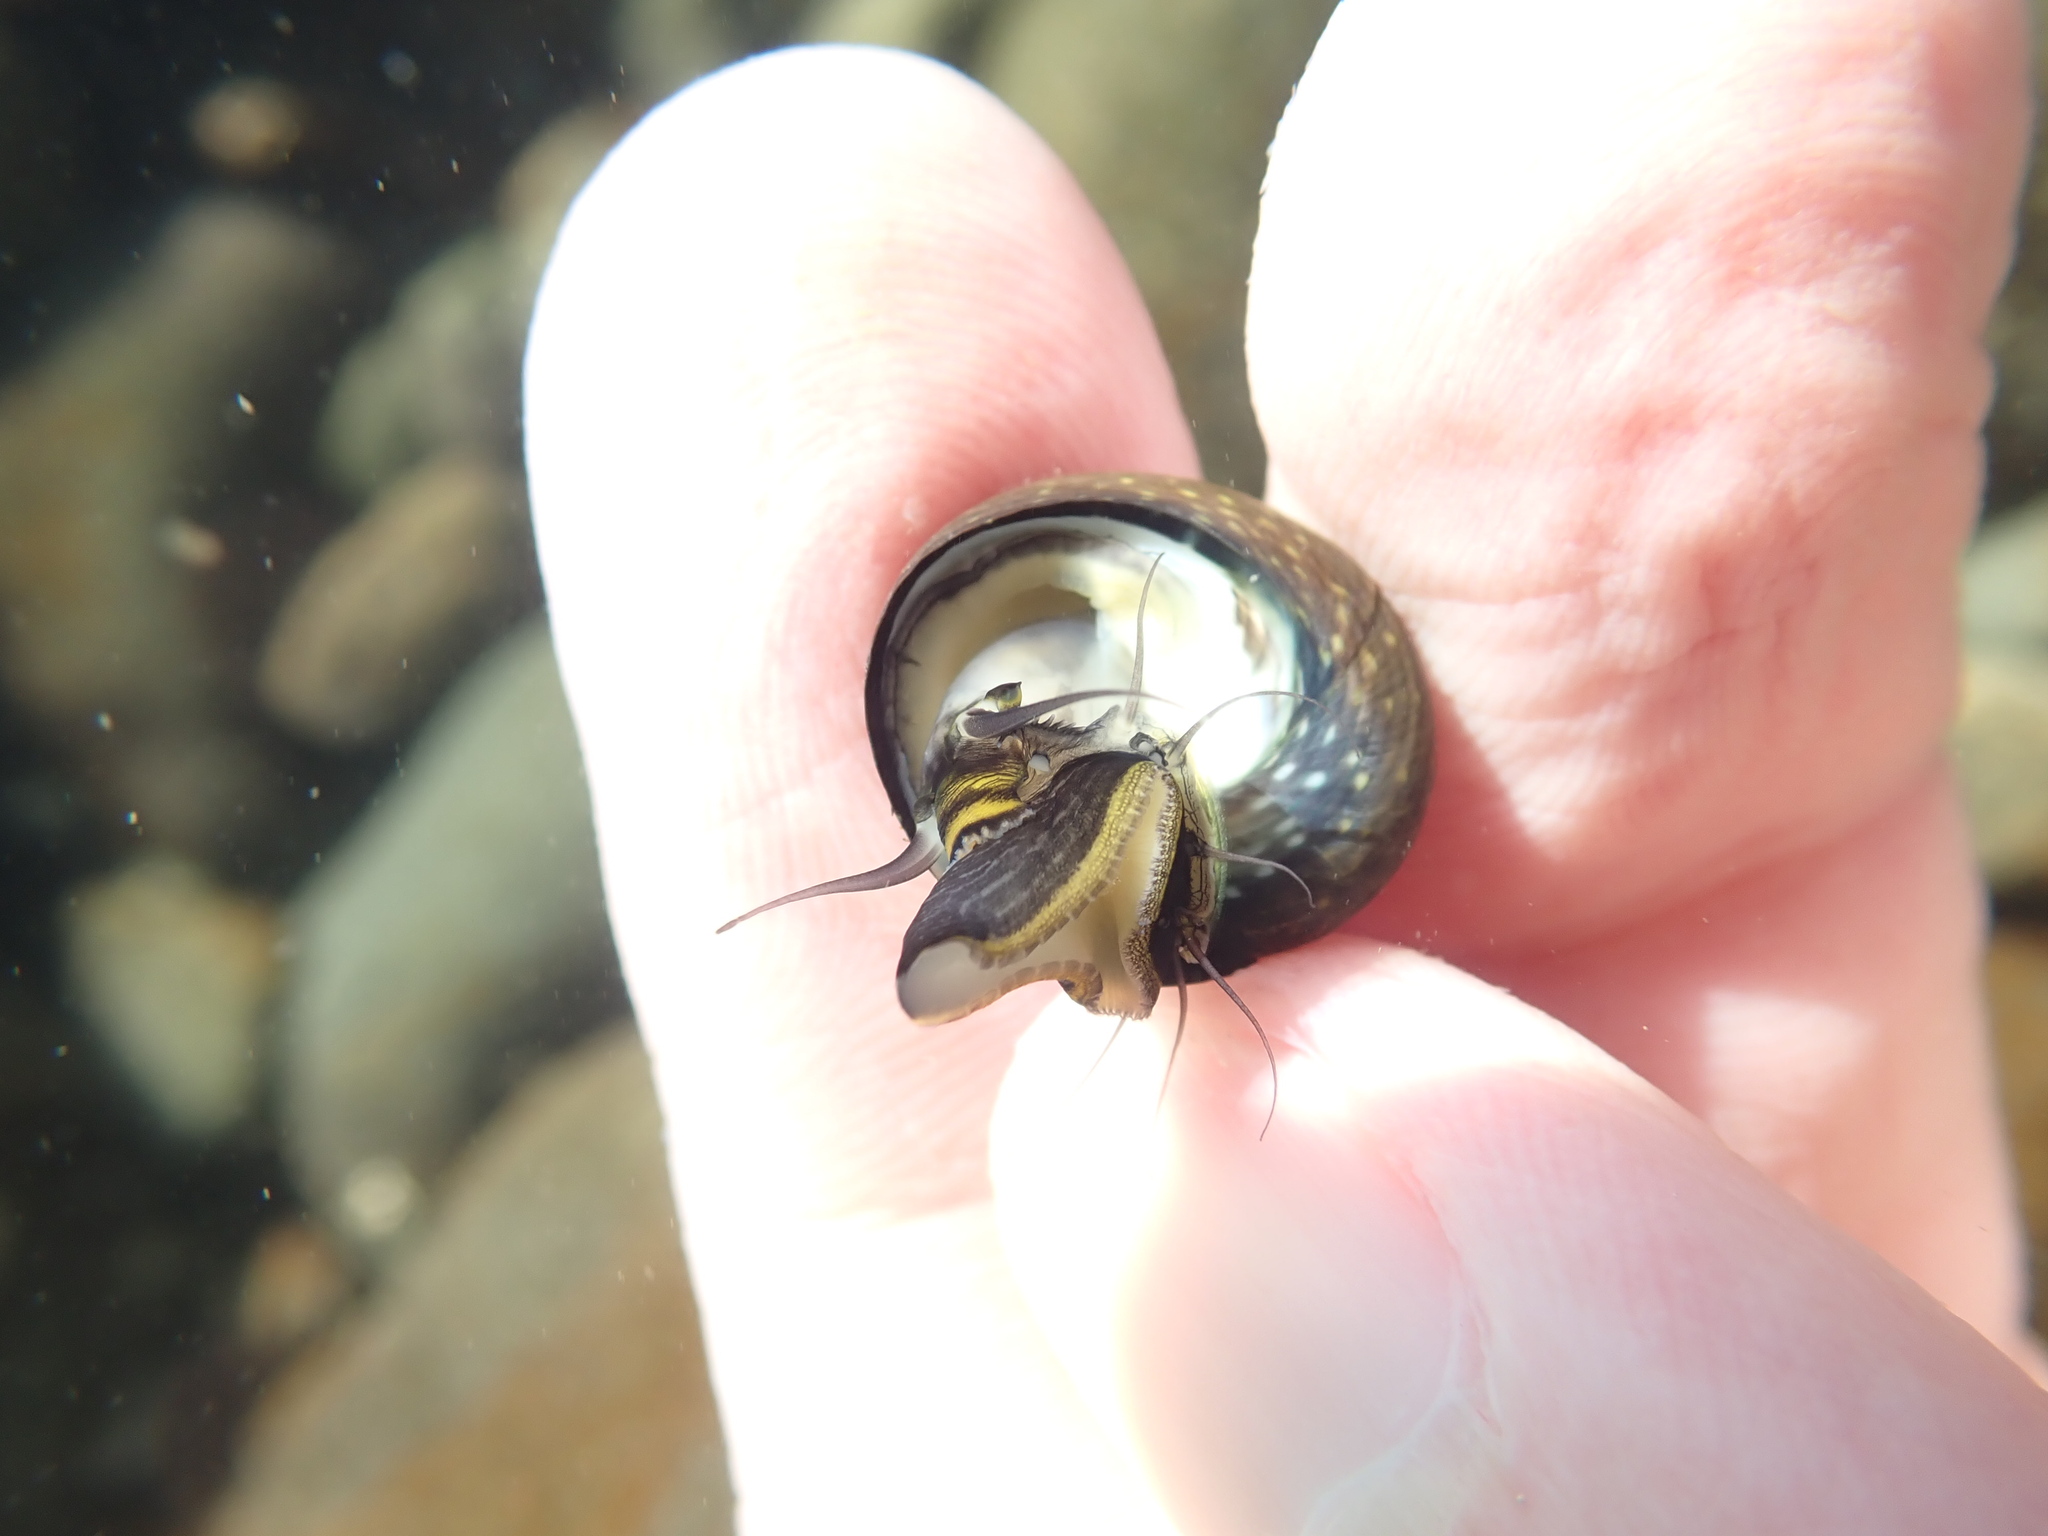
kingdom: Animalia
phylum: Mollusca
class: Gastropoda
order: Trochida
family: Trochidae
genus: Diloma
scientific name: Diloma aridum
